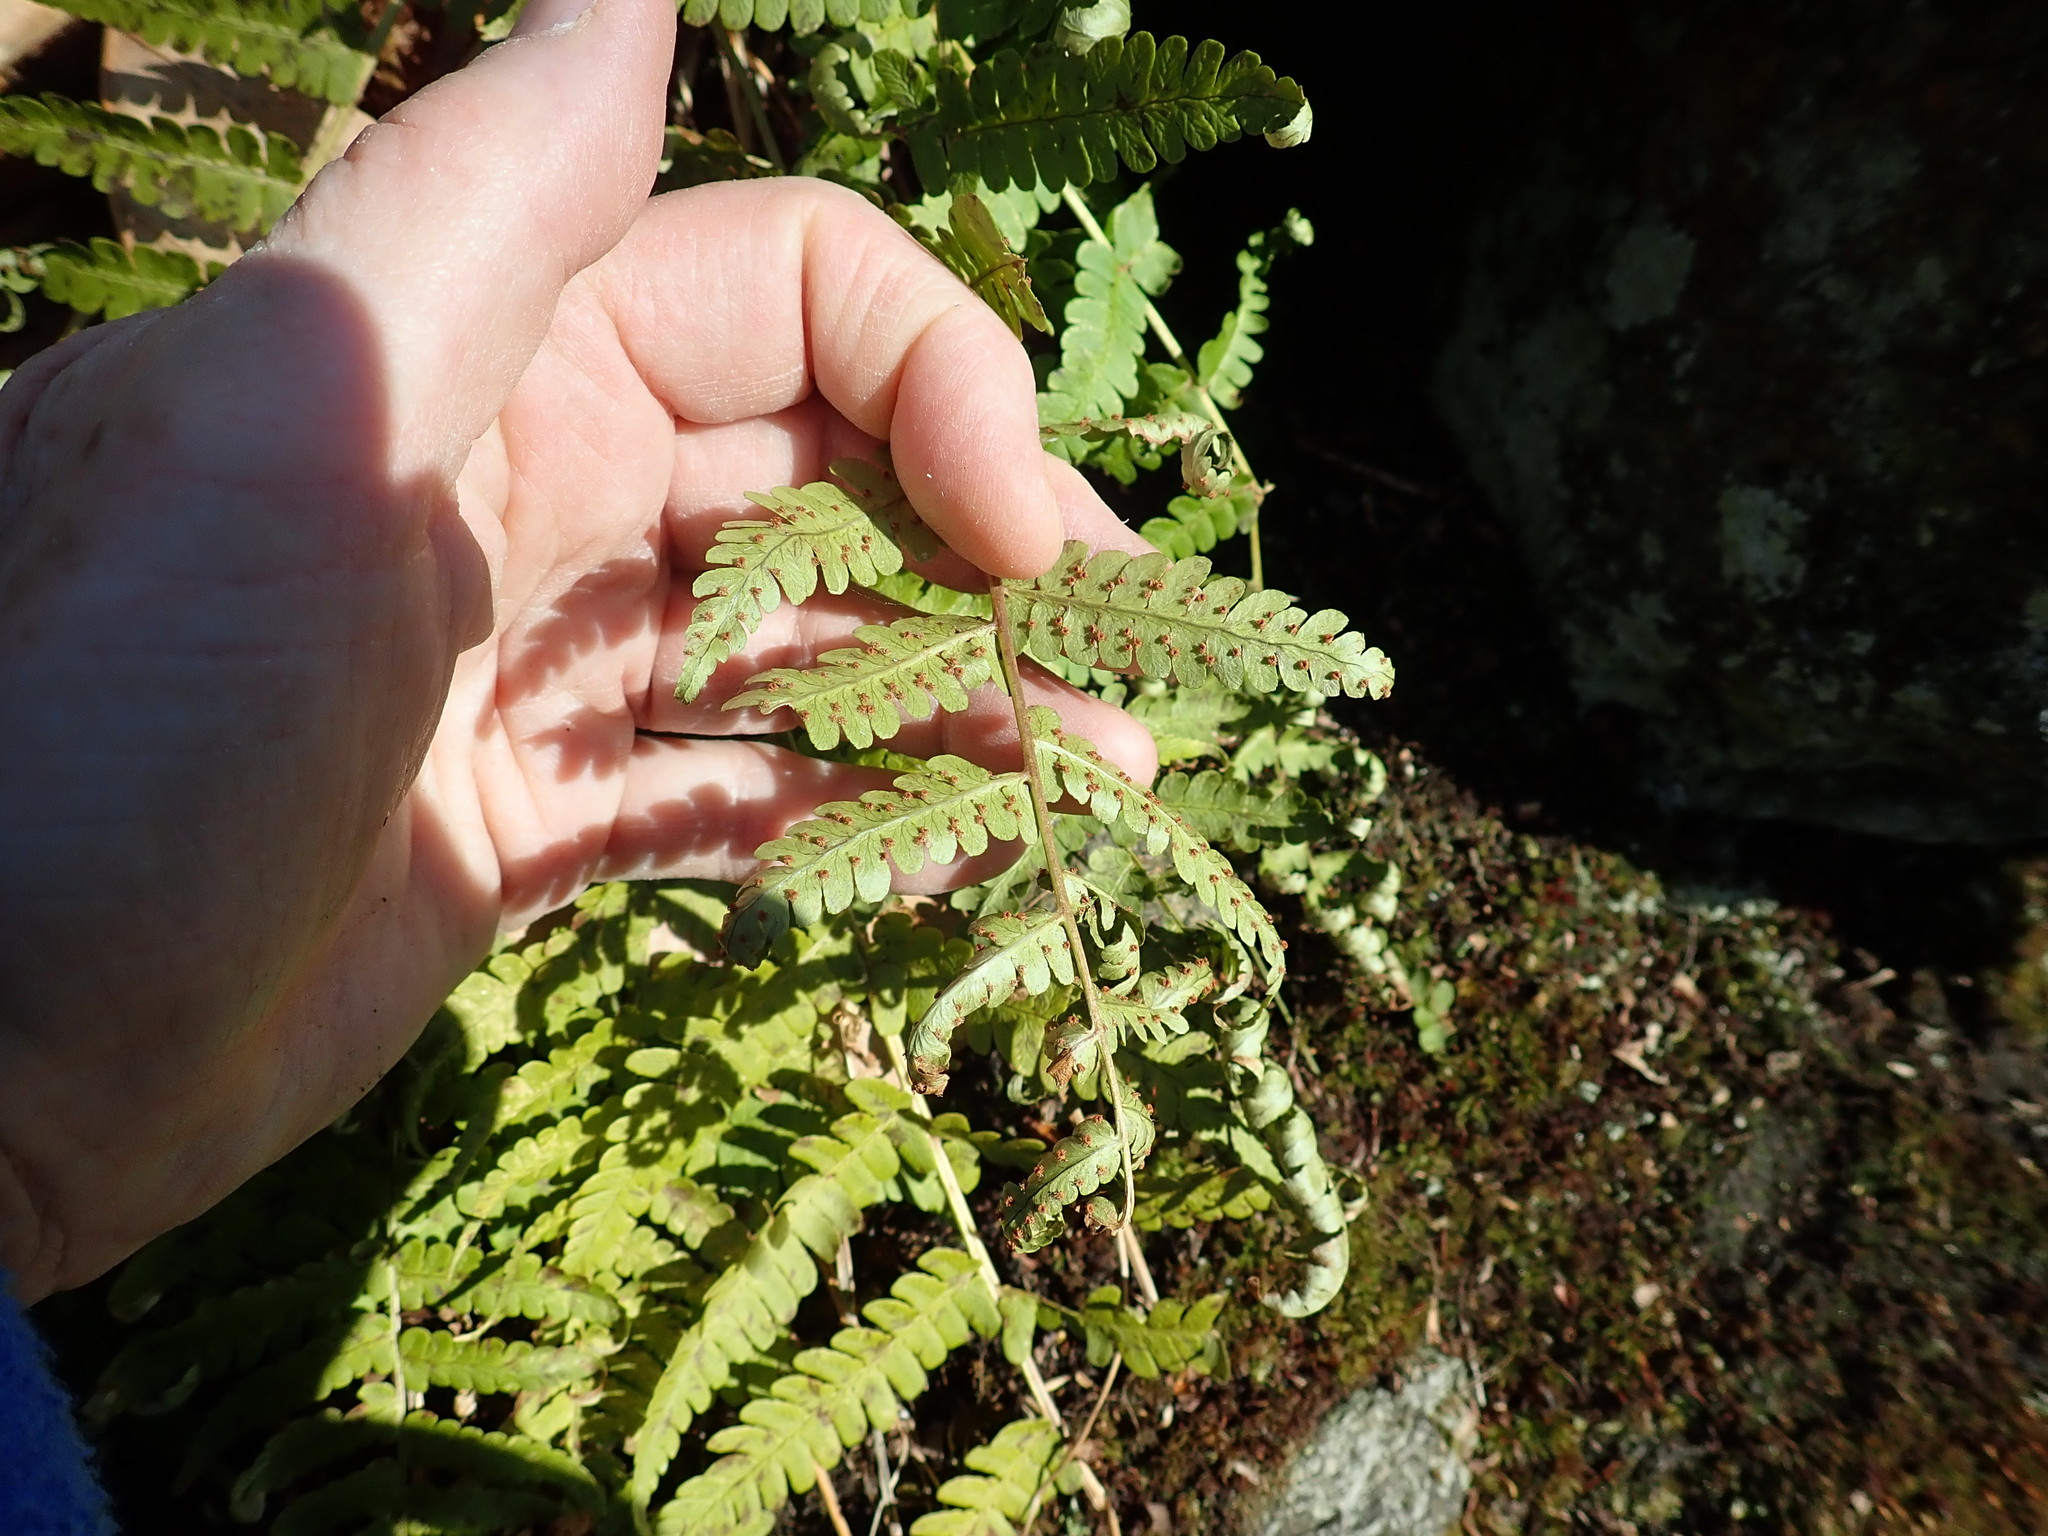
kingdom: Plantae
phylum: Tracheophyta
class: Polypodiopsida
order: Polypodiales
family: Dryopteridaceae
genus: Dryopteris
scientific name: Dryopteris marginalis
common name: Marginal wood fern
